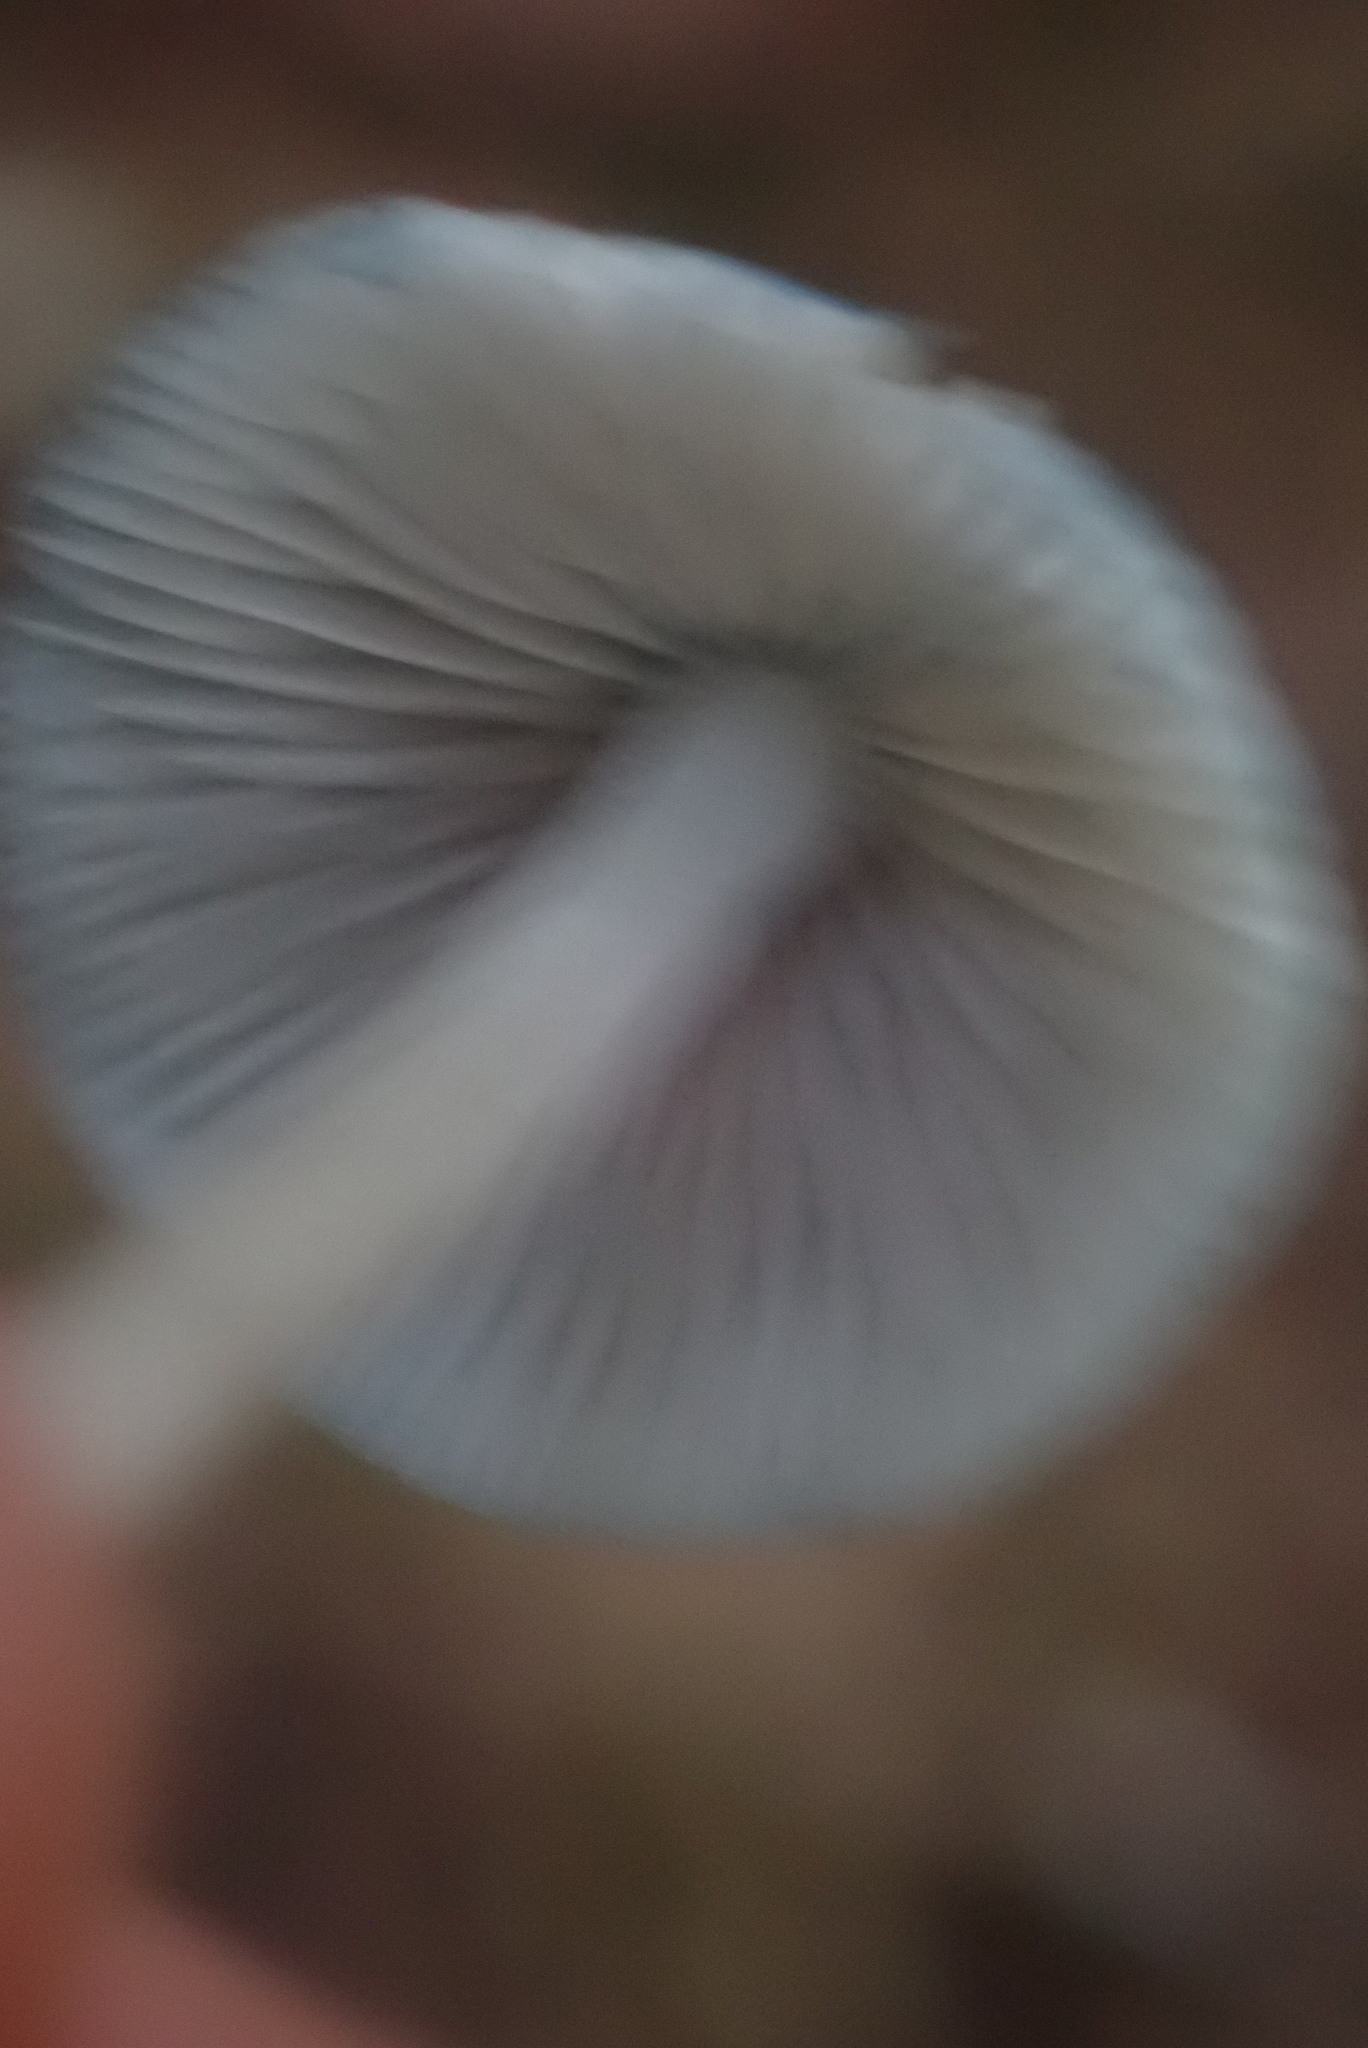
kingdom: Fungi
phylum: Basidiomycota
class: Agaricomycetes
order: Agaricales
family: Mycenaceae
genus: Mycena
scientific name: Mycena amicta
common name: Coldfoot bonnet
